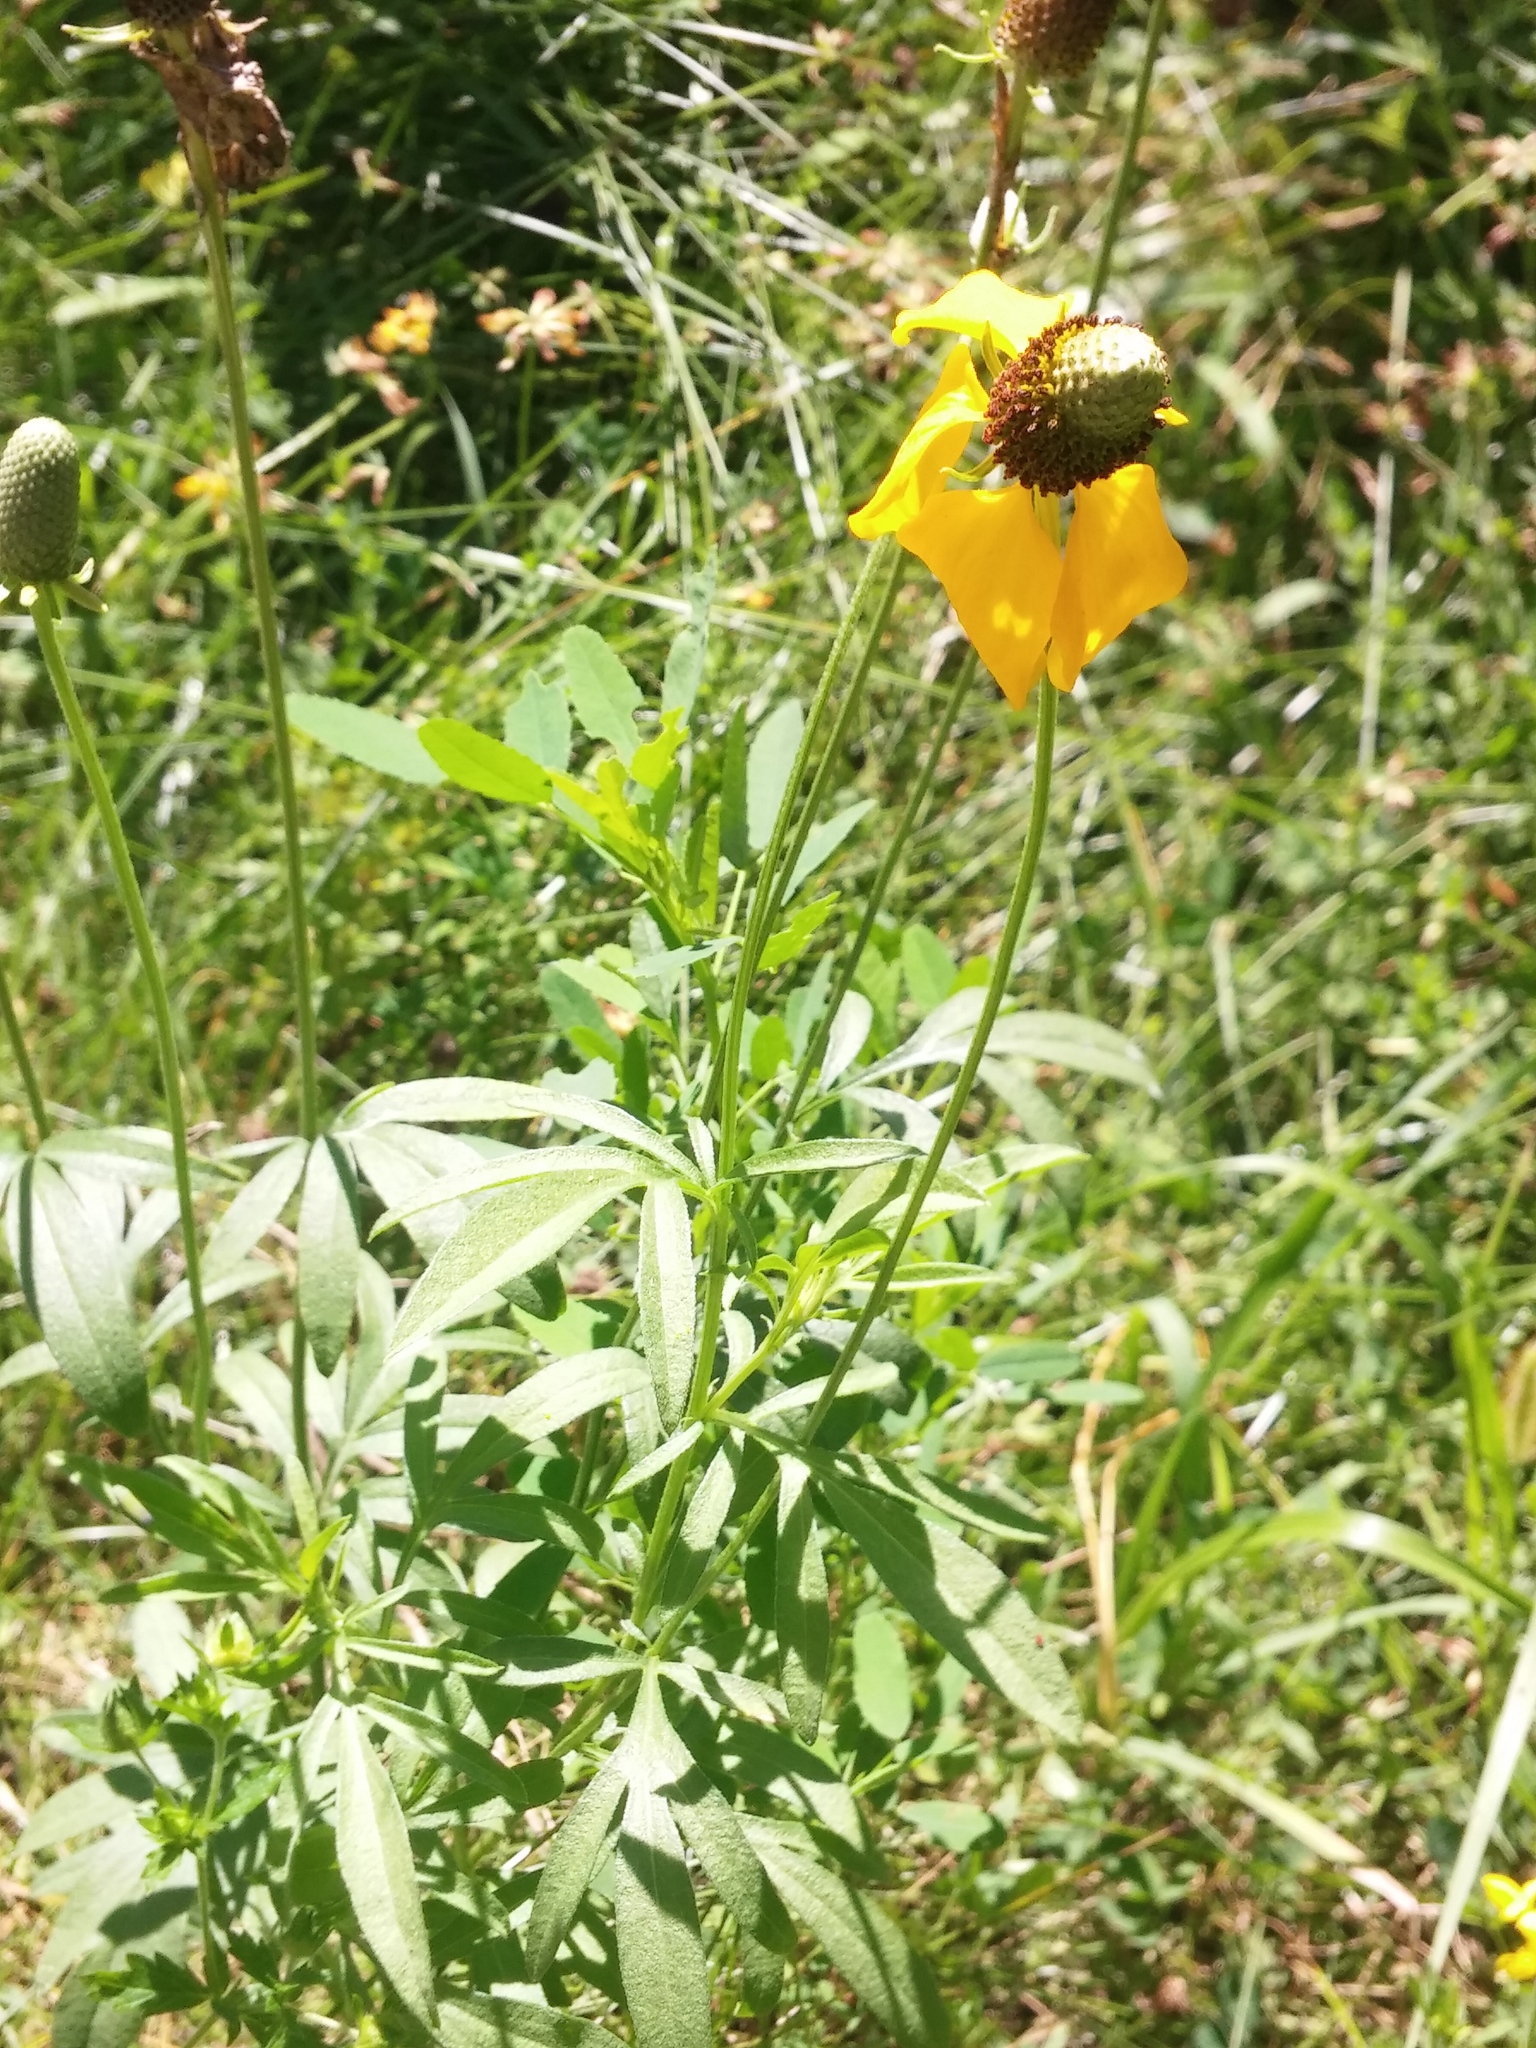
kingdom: Plantae
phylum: Tracheophyta
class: Magnoliopsida
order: Asterales
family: Asteraceae
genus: Ratibida
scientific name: Ratibida columnifera
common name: Prairie coneflower
